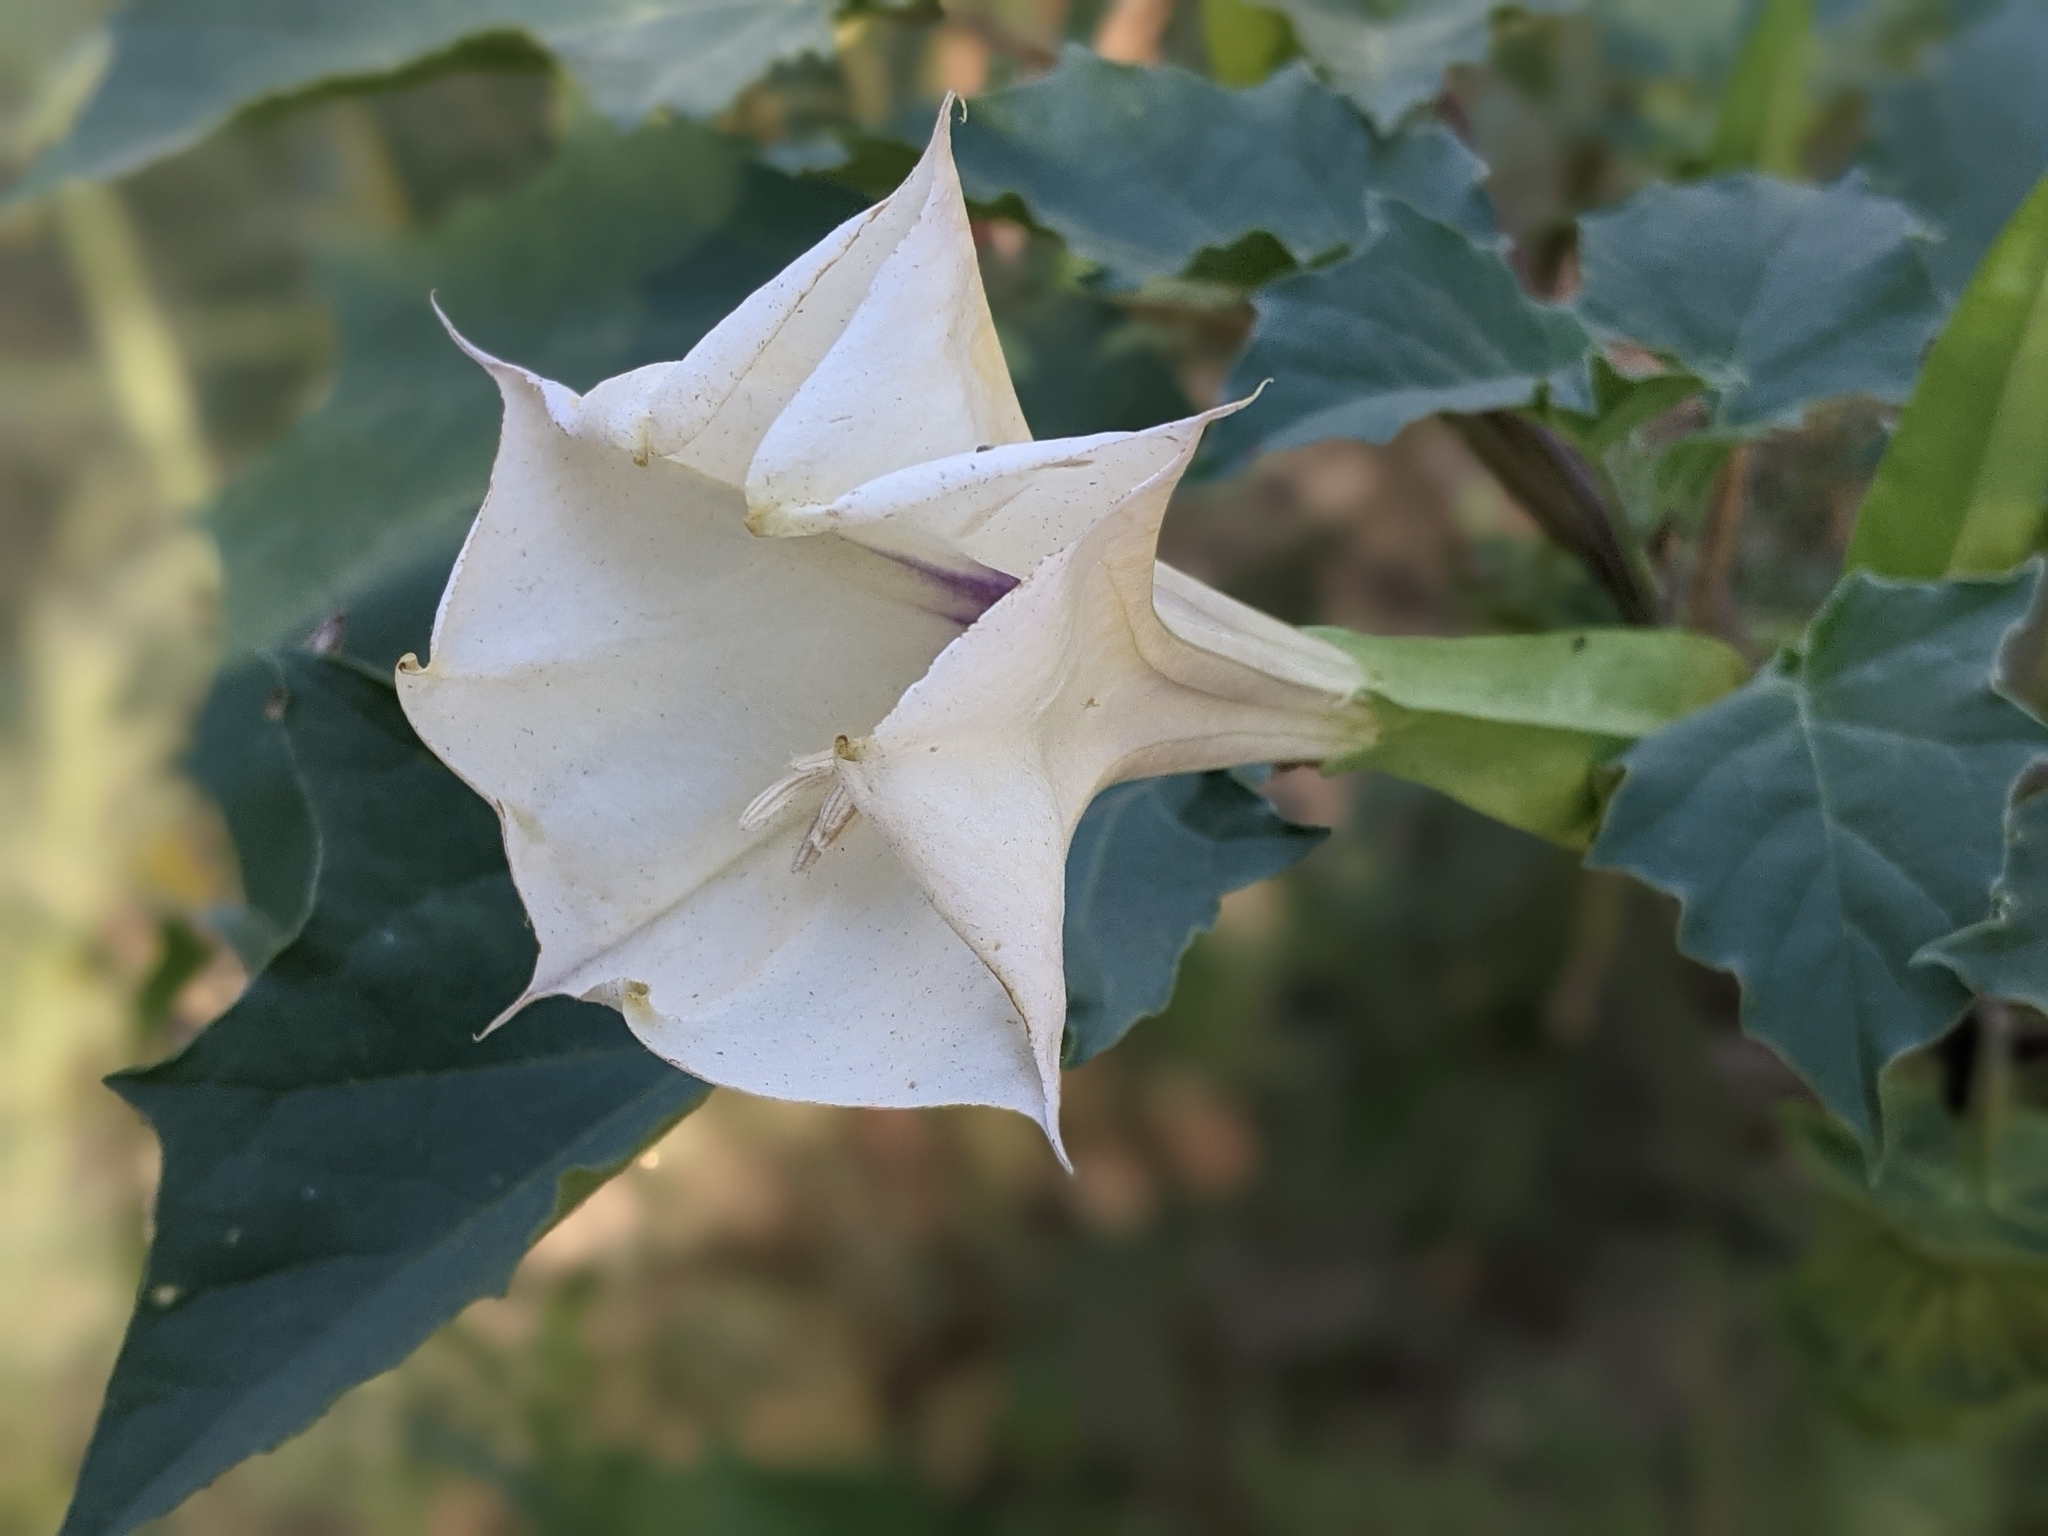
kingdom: Plantae
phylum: Tracheophyta
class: Magnoliopsida
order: Solanales
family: Solanaceae
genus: Datura
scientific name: Datura discolor
